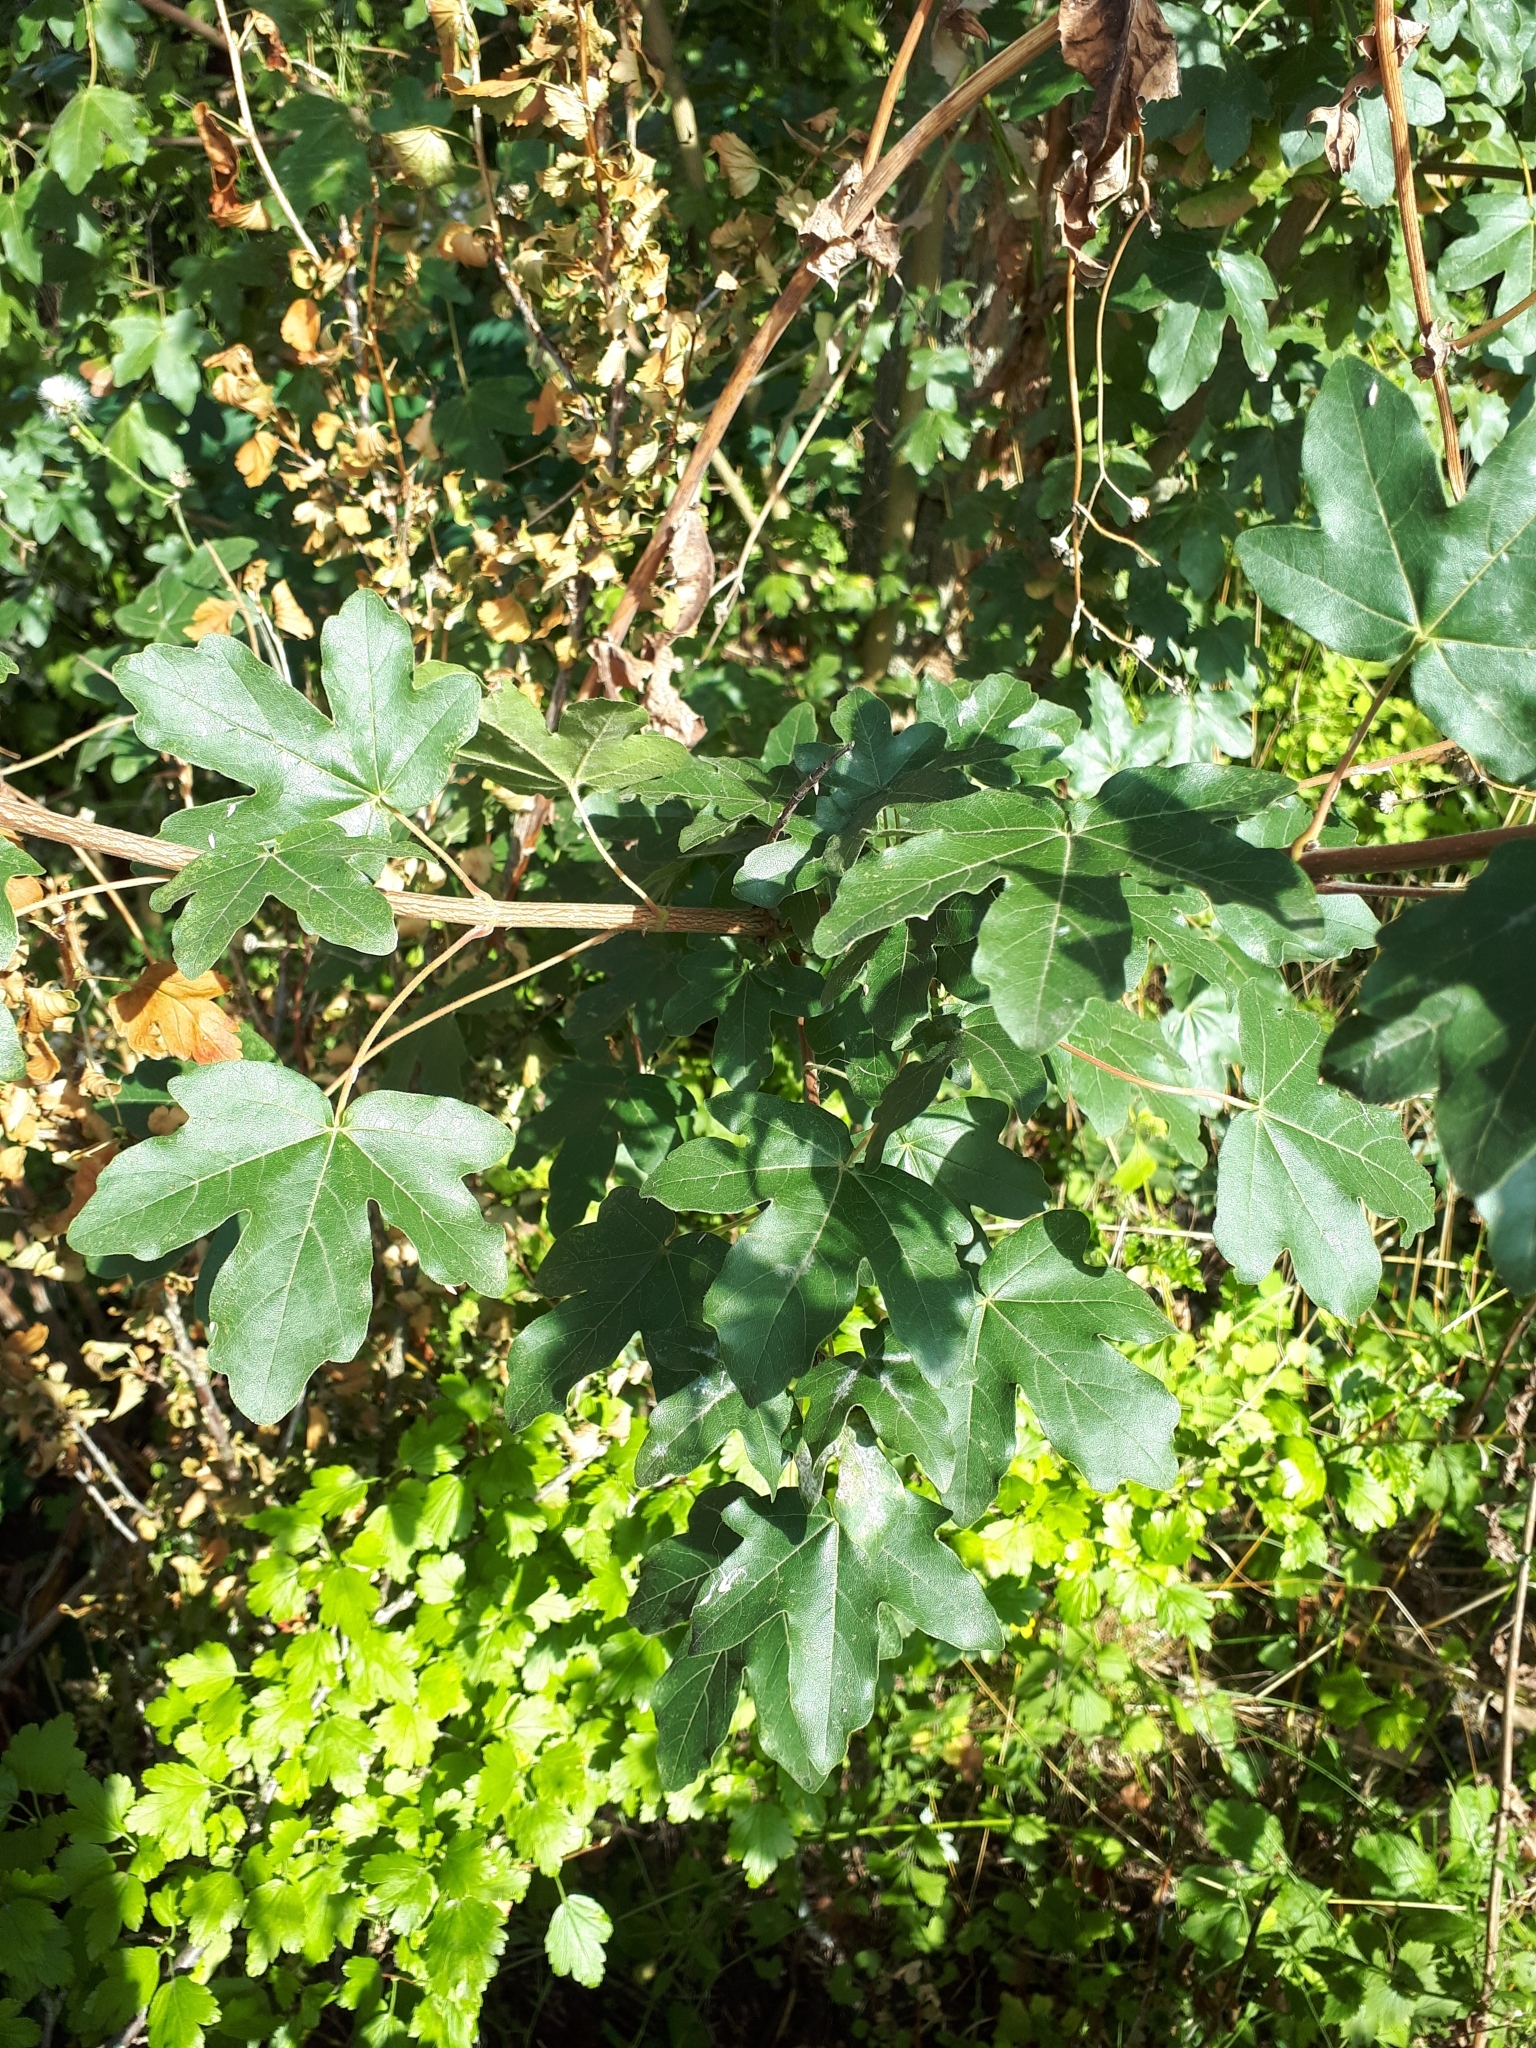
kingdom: Plantae
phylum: Tracheophyta
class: Magnoliopsida
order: Sapindales
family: Sapindaceae
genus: Acer
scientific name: Acer campestre
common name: Field maple
